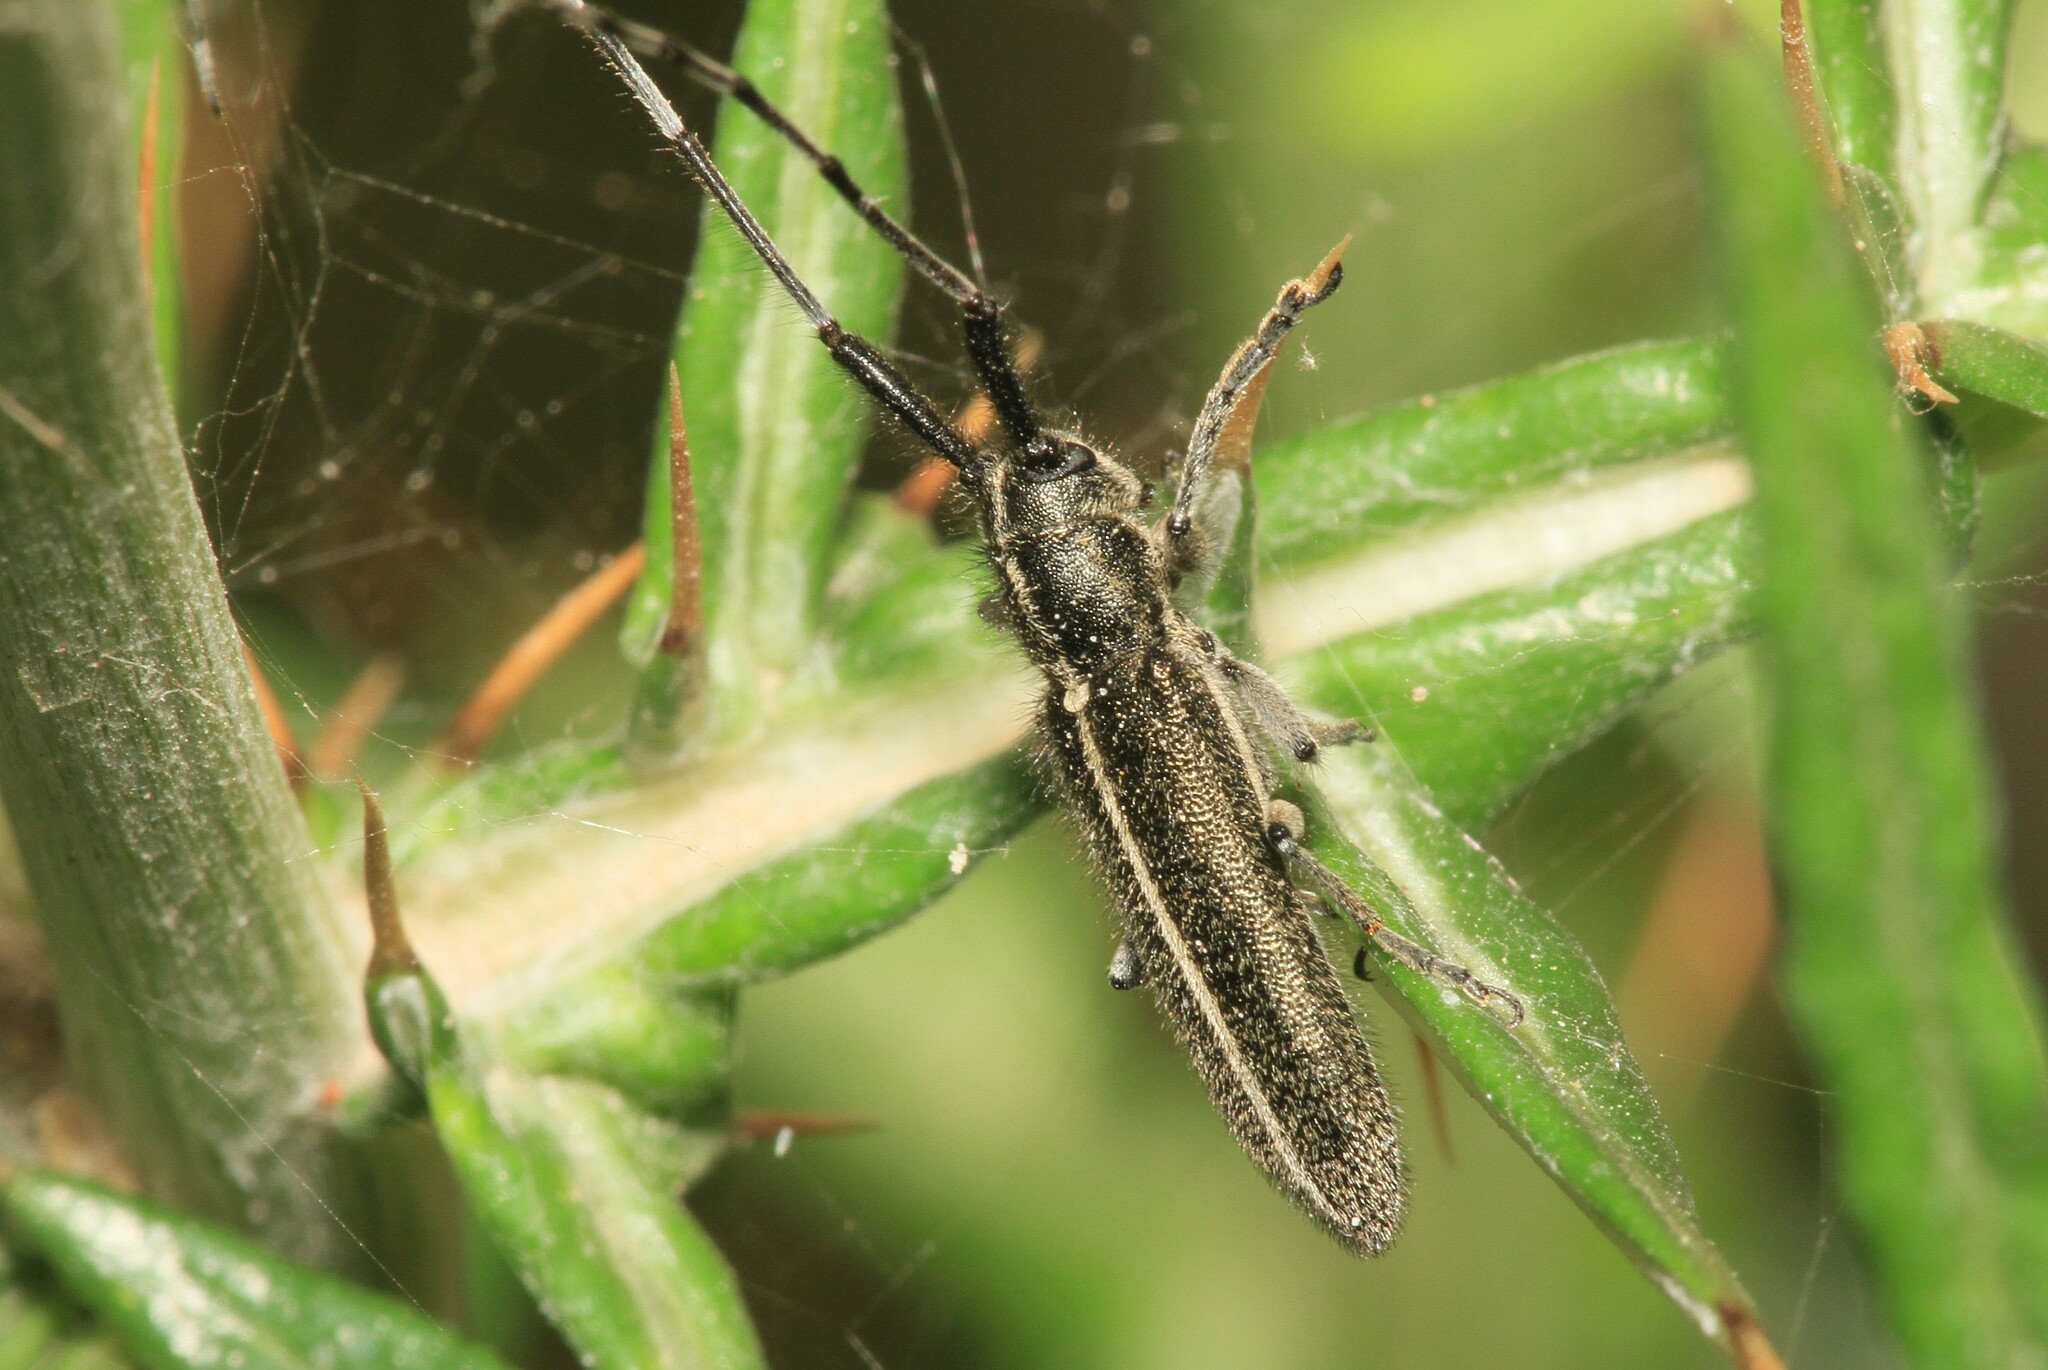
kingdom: Animalia
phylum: Arthropoda
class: Insecta
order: Coleoptera
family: Cerambycidae
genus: Agapanthia
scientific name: Agapanthia cardui
